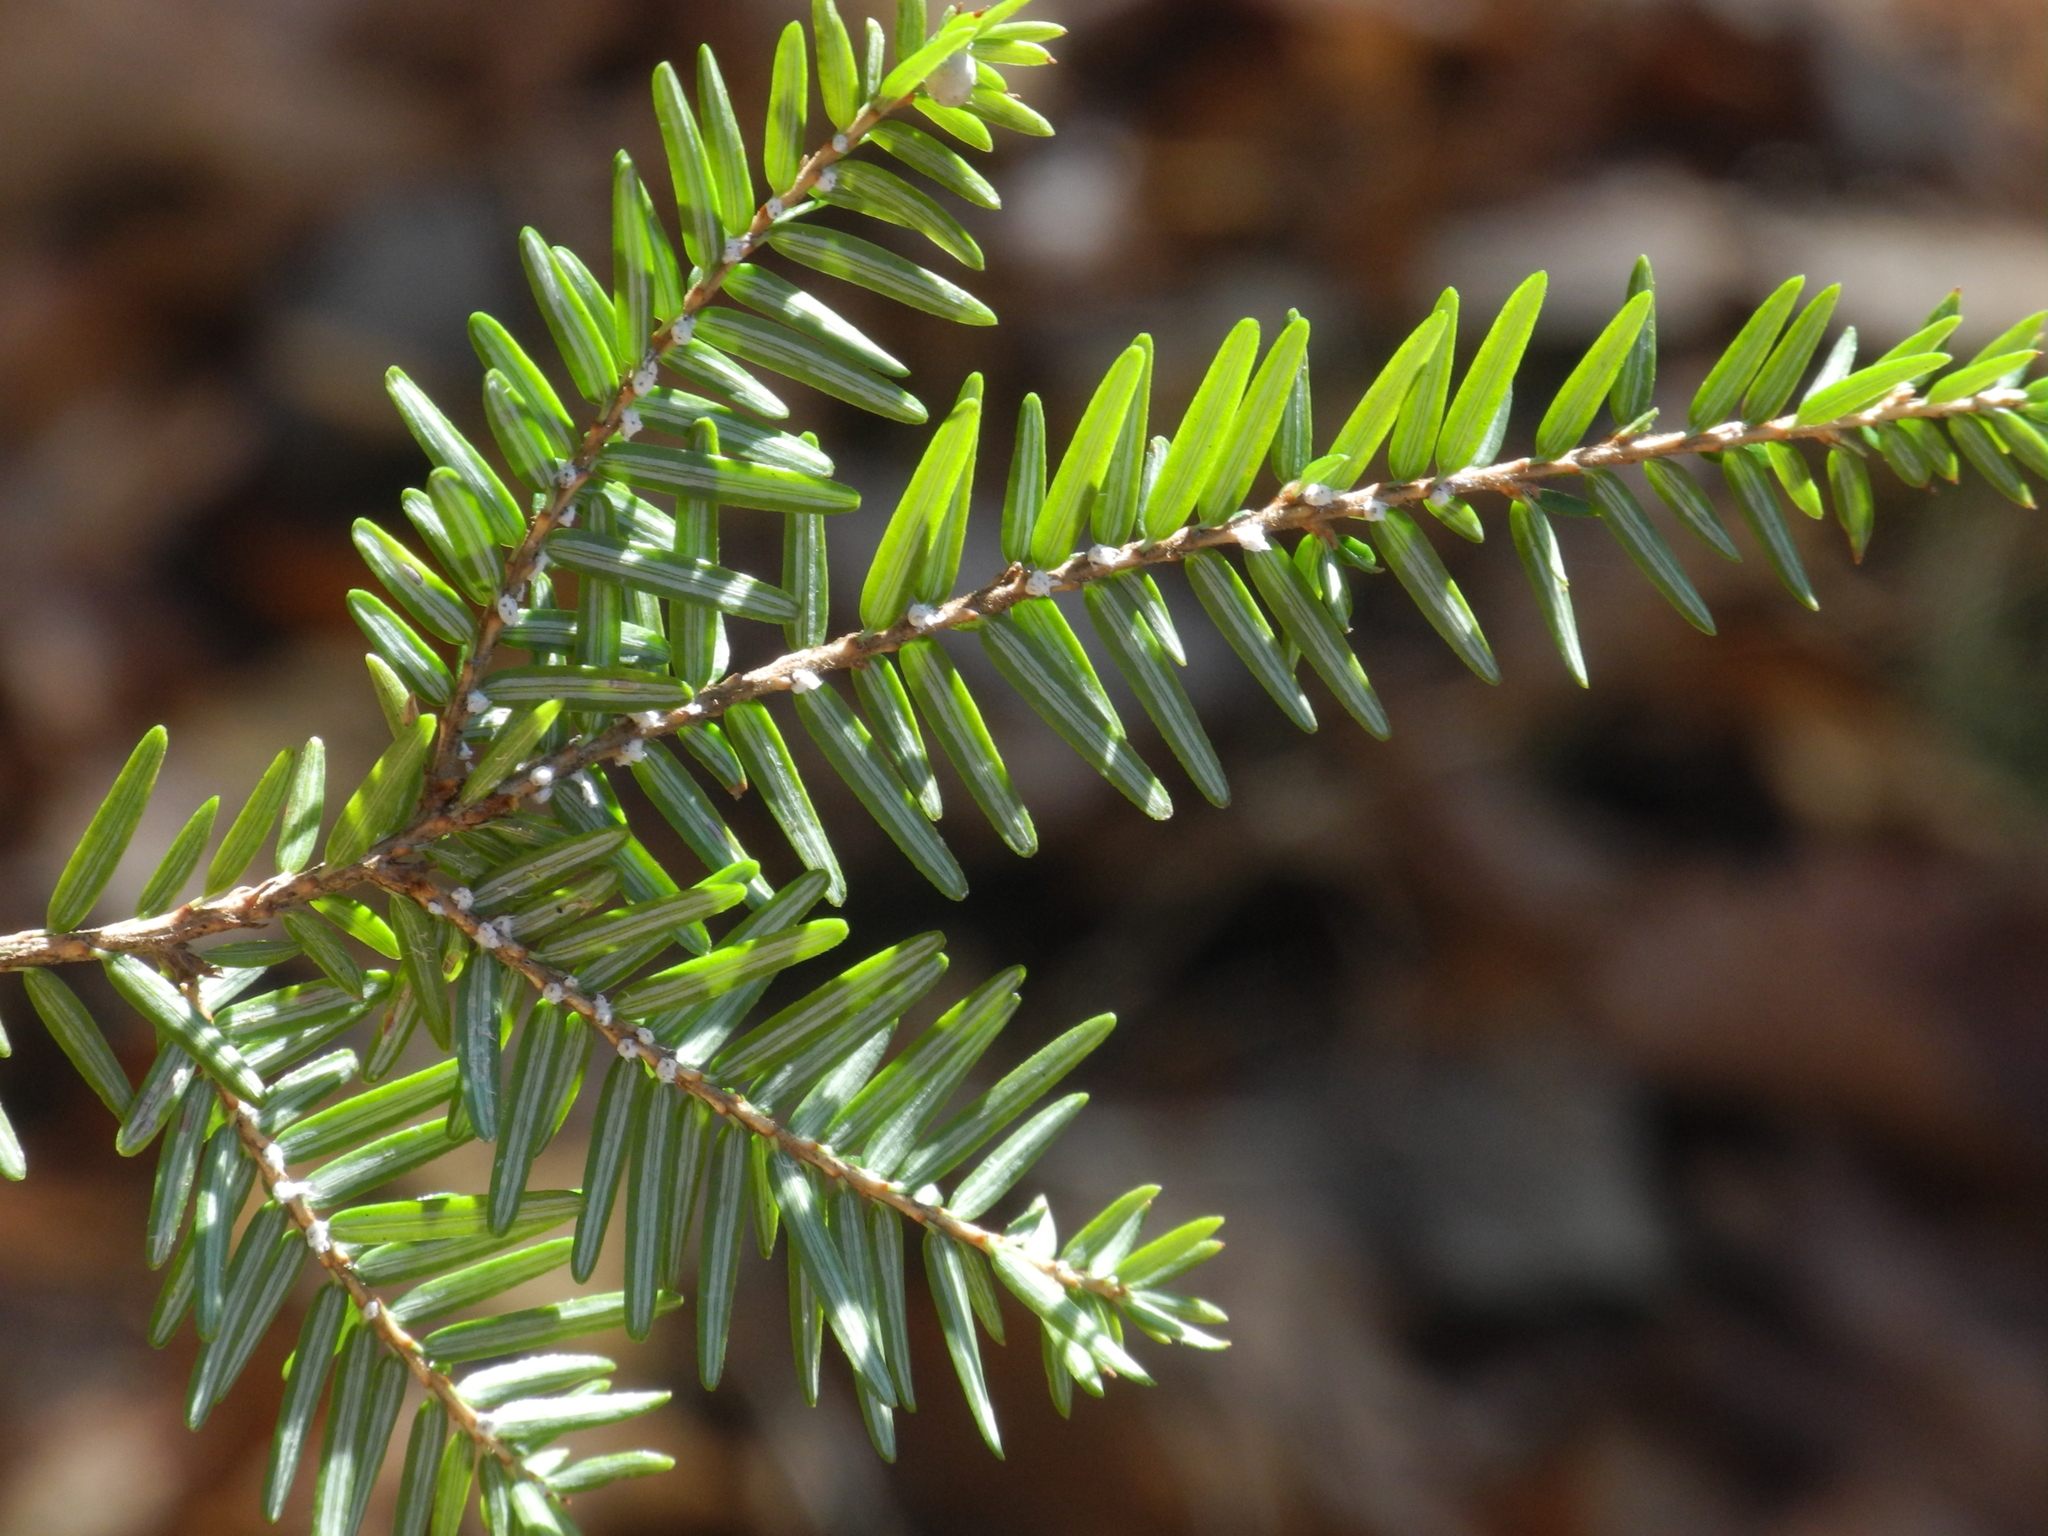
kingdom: Plantae
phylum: Tracheophyta
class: Pinopsida
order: Pinales
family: Pinaceae
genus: Tsuga
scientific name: Tsuga canadensis
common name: Eastern hemlock
